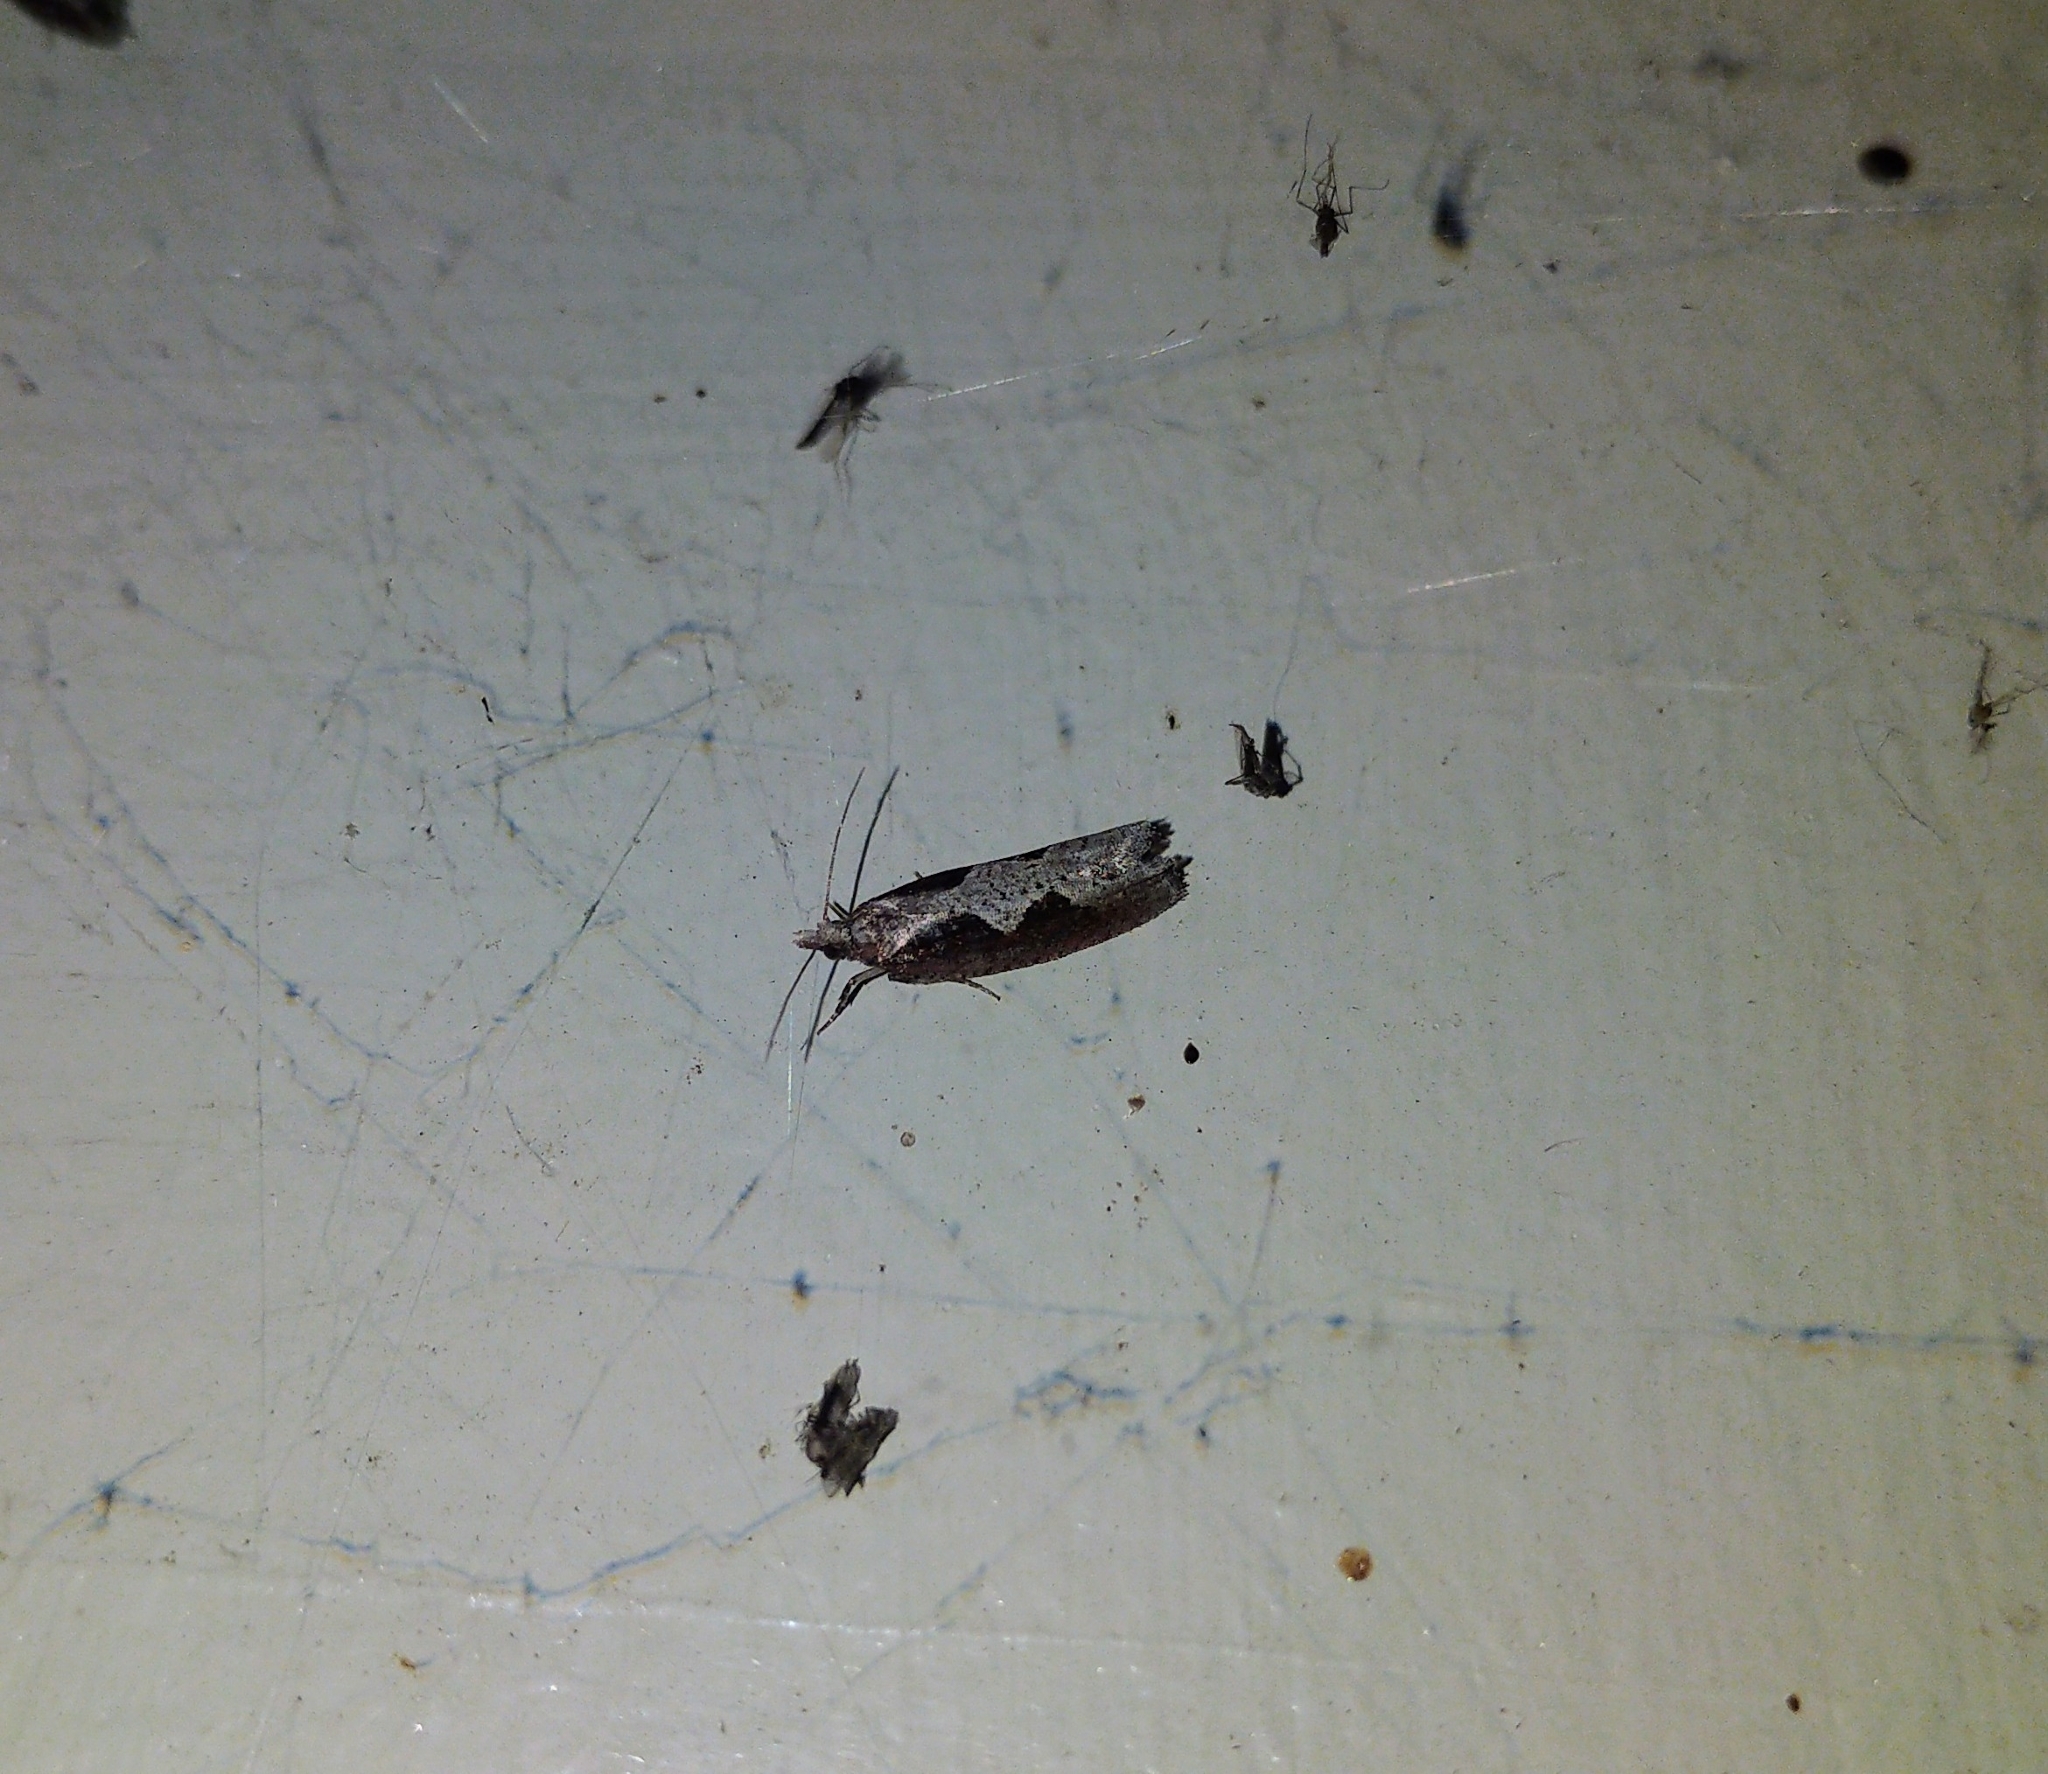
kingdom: Animalia
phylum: Arthropoda
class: Insecta
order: Lepidoptera
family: Tortricidae
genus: Epinotia
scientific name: Epinotia lindana
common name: Diamondback epinotia moth
